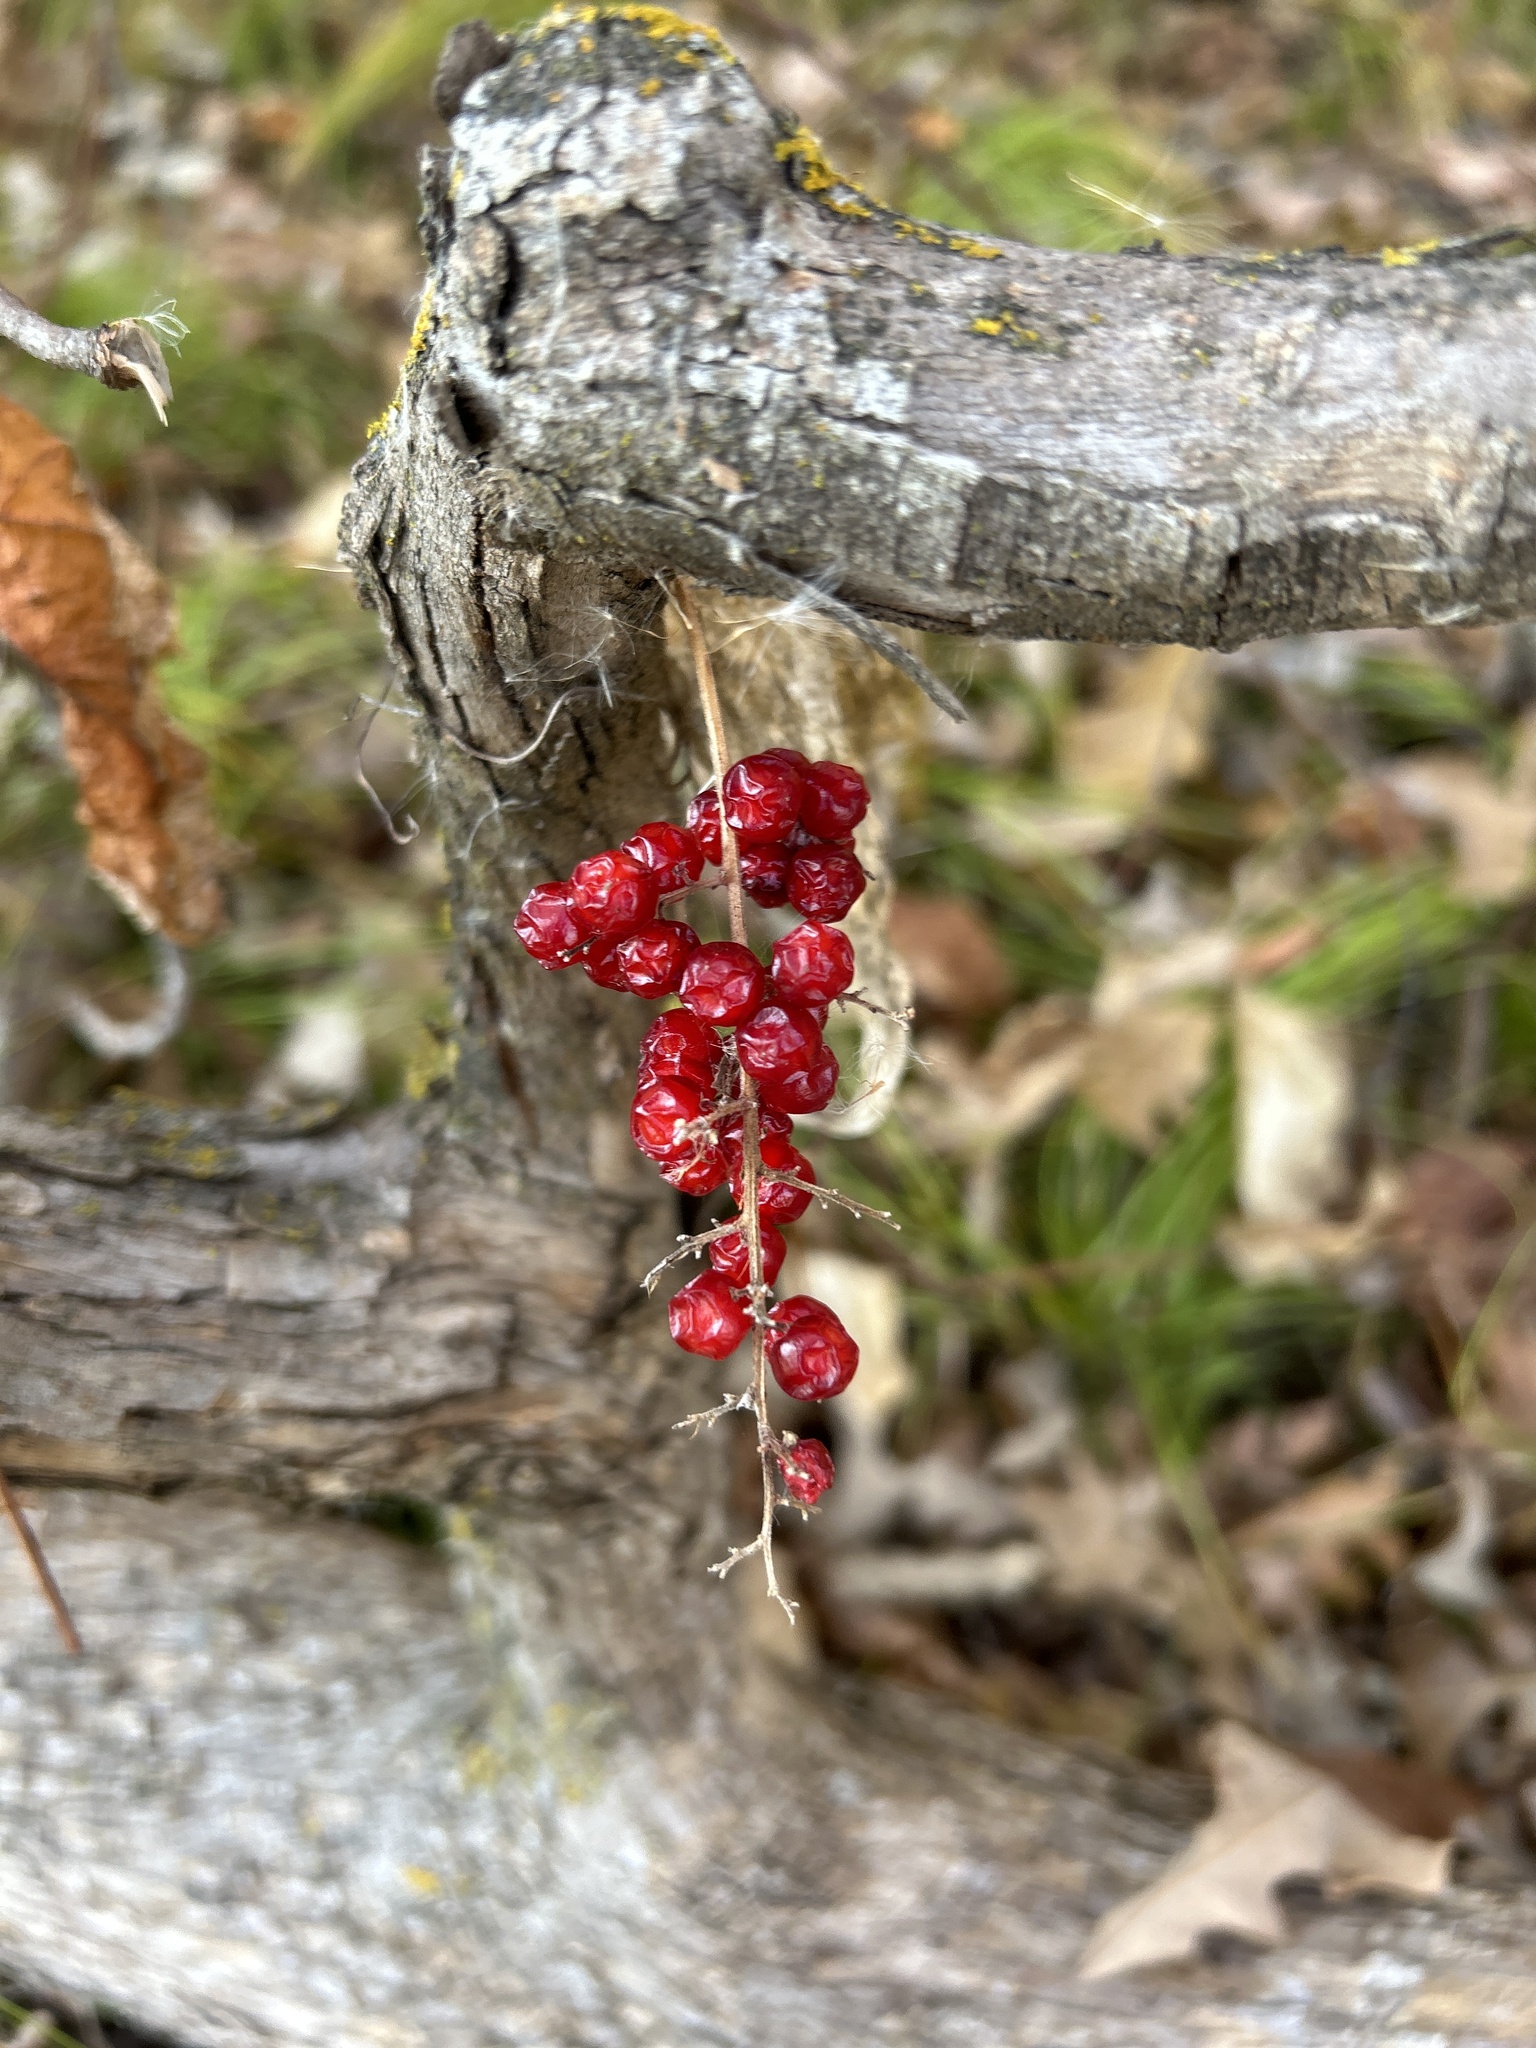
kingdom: Plantae
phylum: Tracheophyta
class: Liliopsida
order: Asparagales
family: Asparagaceae
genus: Maianthemum
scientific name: Maianthemum racemosum
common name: False spikenard
